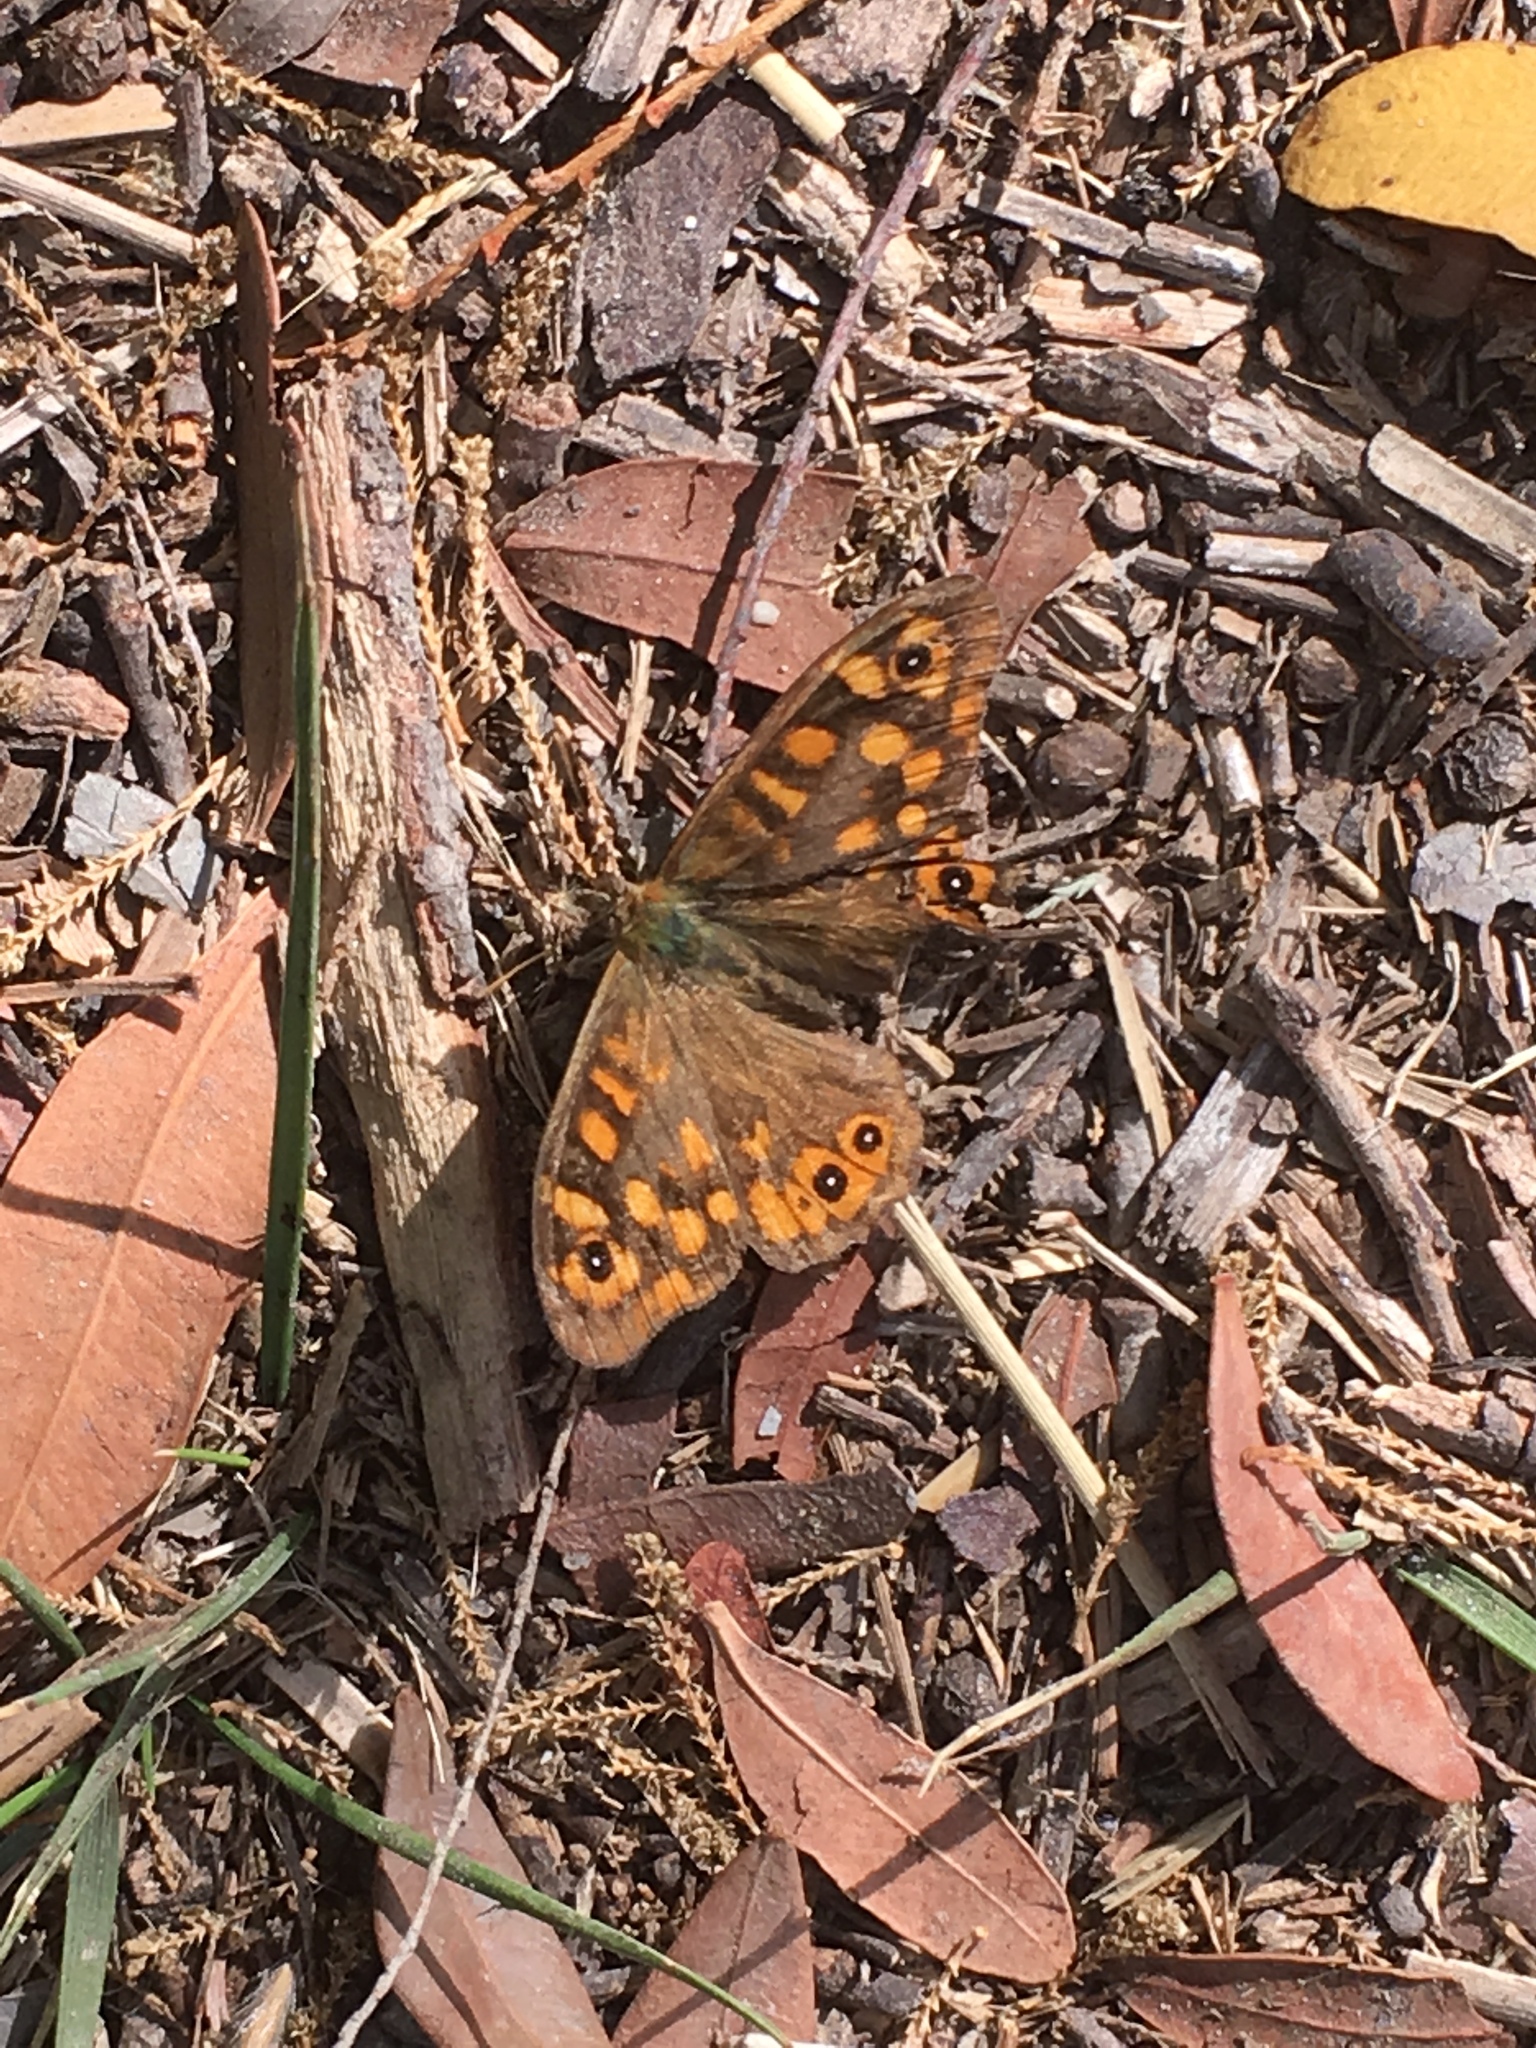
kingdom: Animalia
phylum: Arthropoda
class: Insecta
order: Lepidoptera
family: Nymphalidae
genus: Pararge
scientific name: Pararge aegeria
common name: Speckled wood
